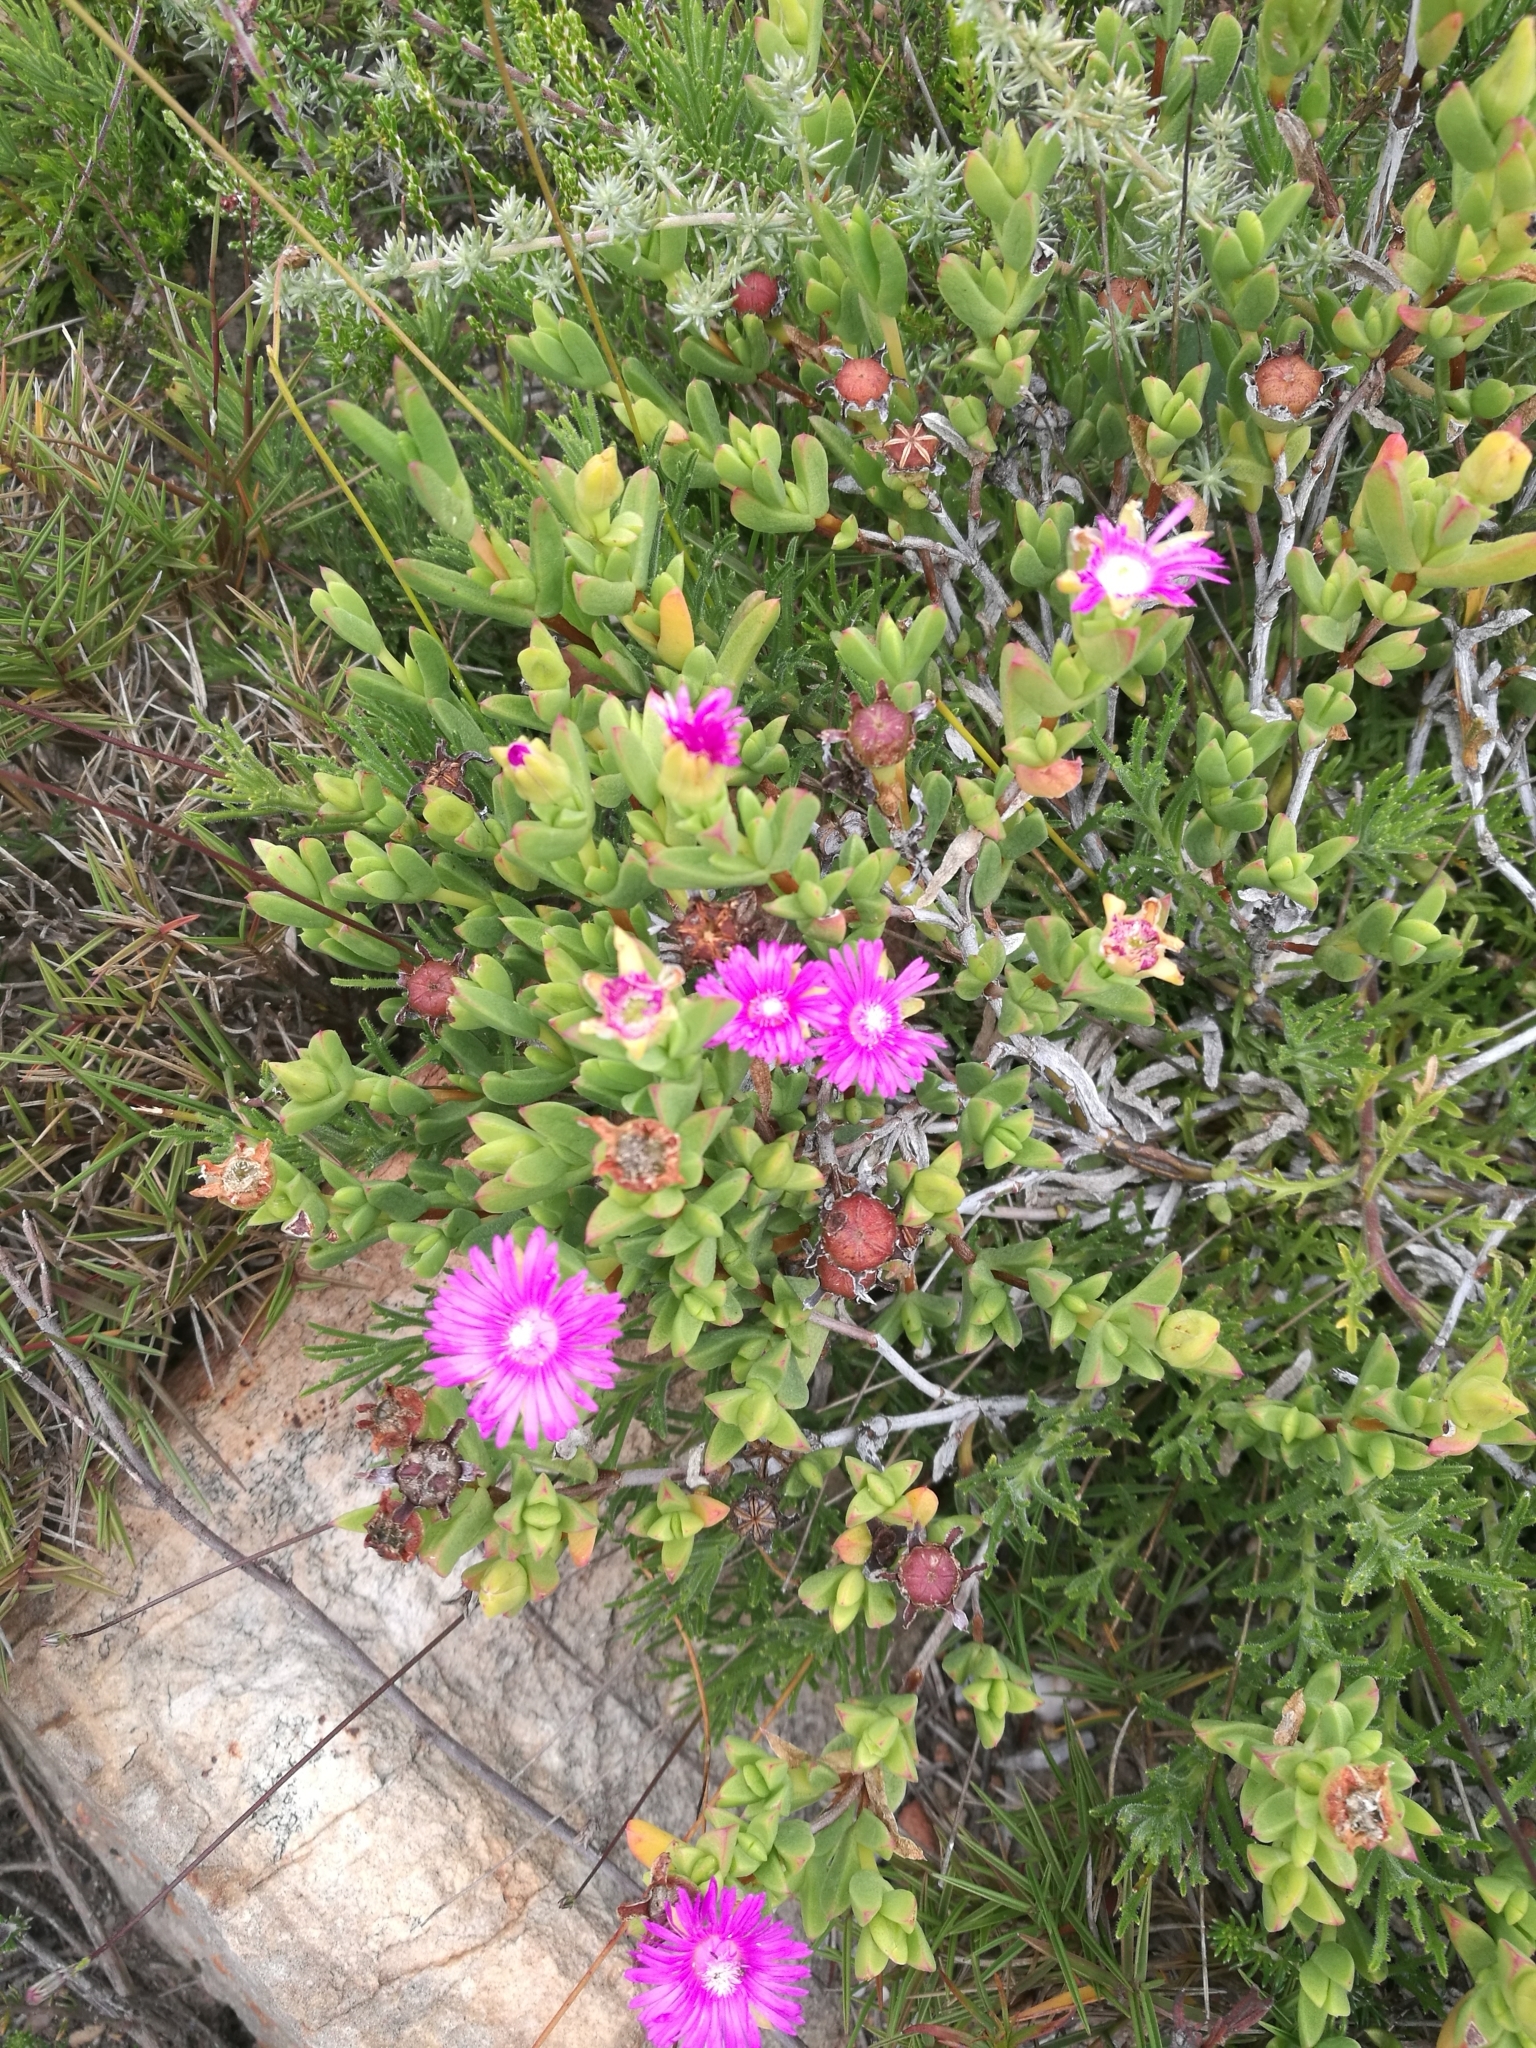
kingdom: Plantae
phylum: Tracheophyta
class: Magnoliopsida
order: Caryophyllales
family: Aizoaceae
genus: Esterhuysenia
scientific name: Esterhuysenia knysnana
